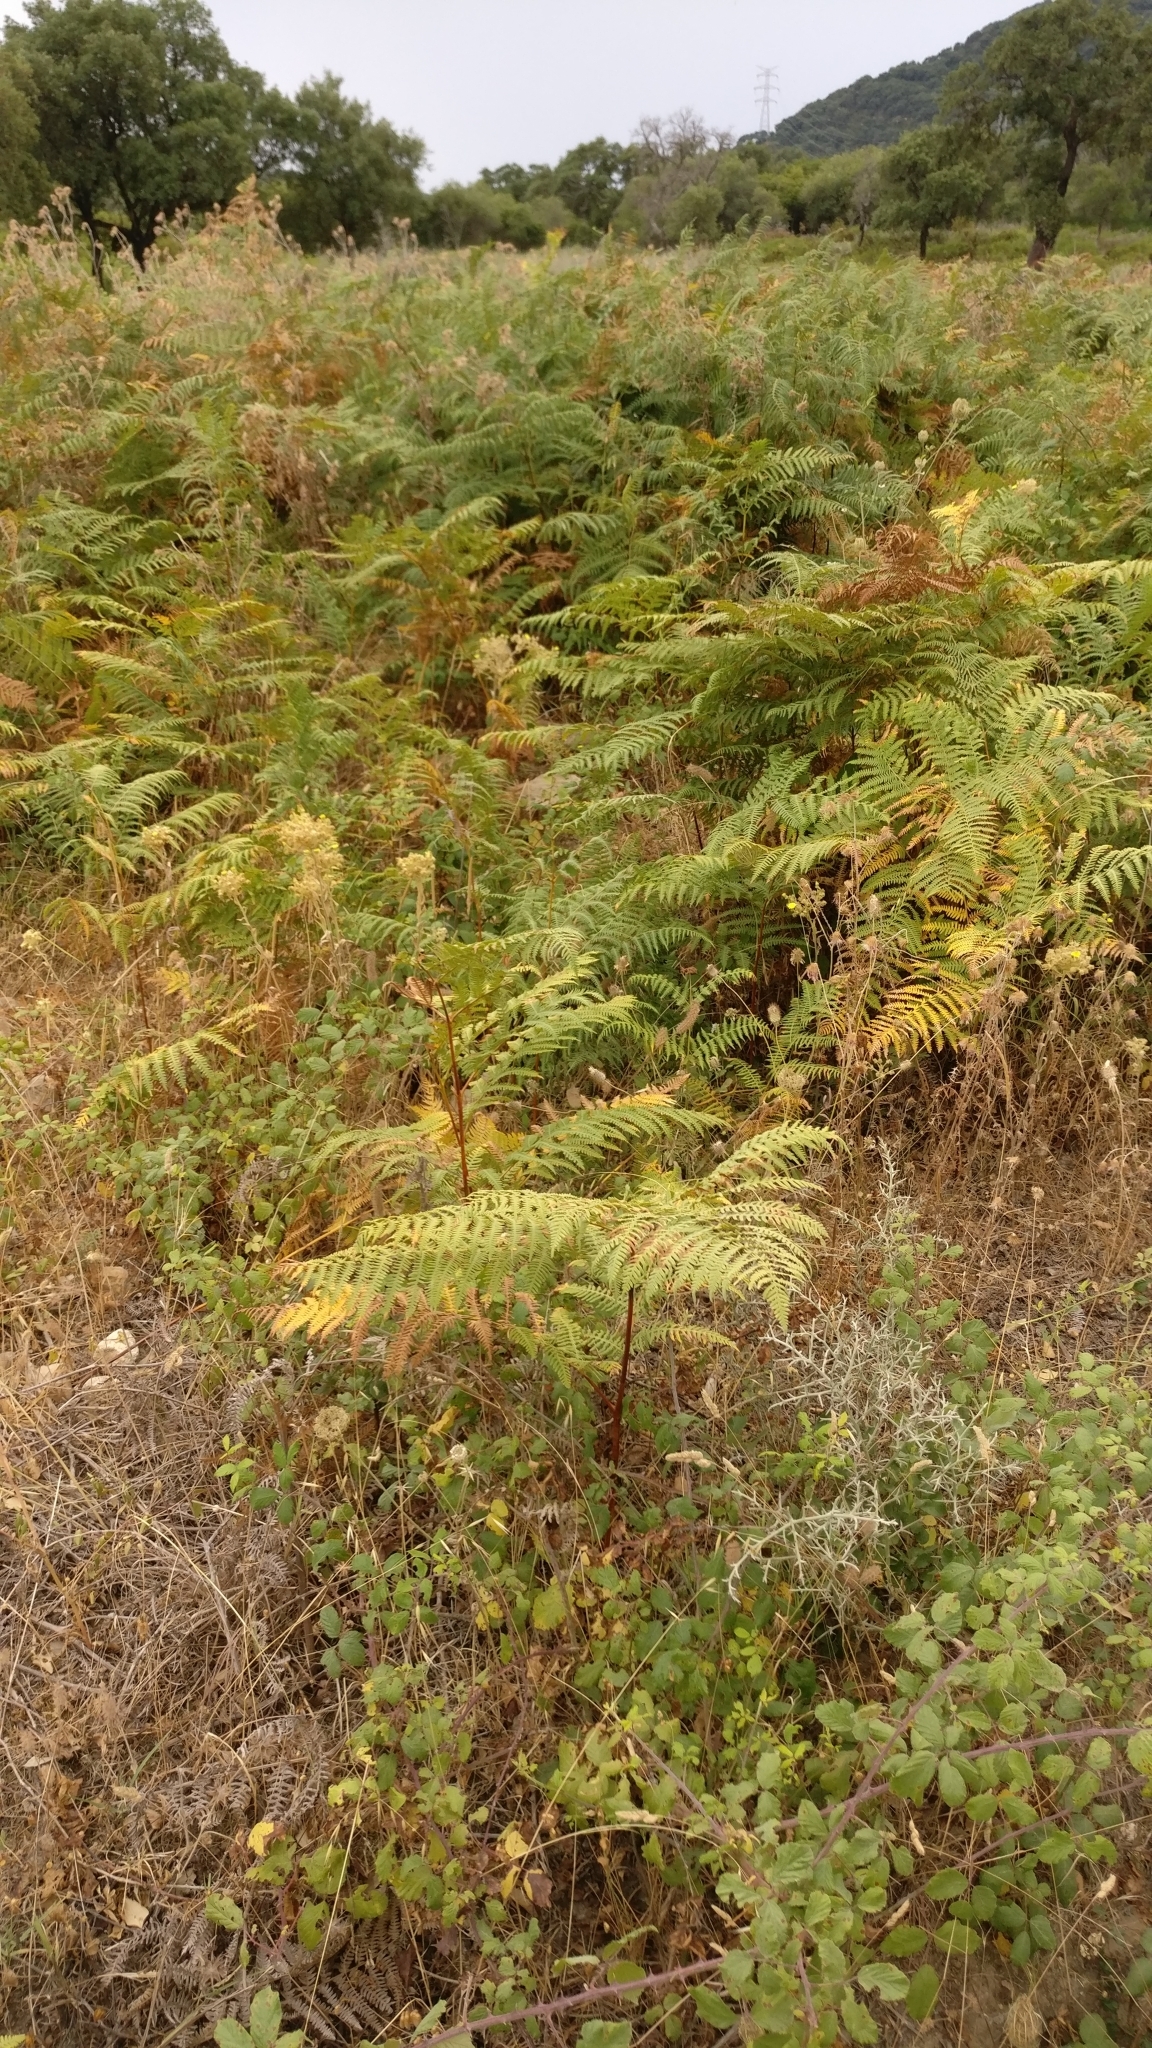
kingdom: Plantae
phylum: Tracheophyta
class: Polypodiopsida
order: Polypodiales
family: Dennstaedtiaceae
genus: Pteridium
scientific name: Pteridium aquilinum
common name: Bracken
